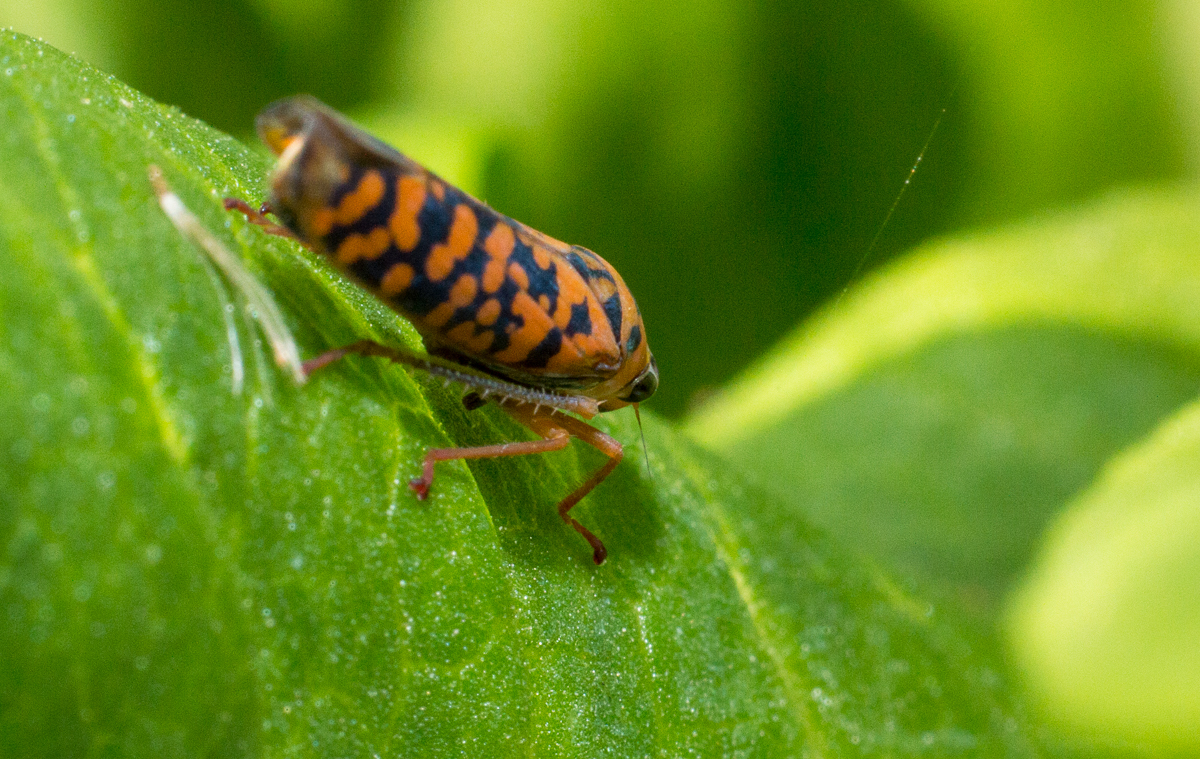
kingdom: Animalia
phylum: Arthropoda
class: Insecta
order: Hemiptera
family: Cicadellidae
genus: Pawiloma
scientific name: Pawiloma victima
